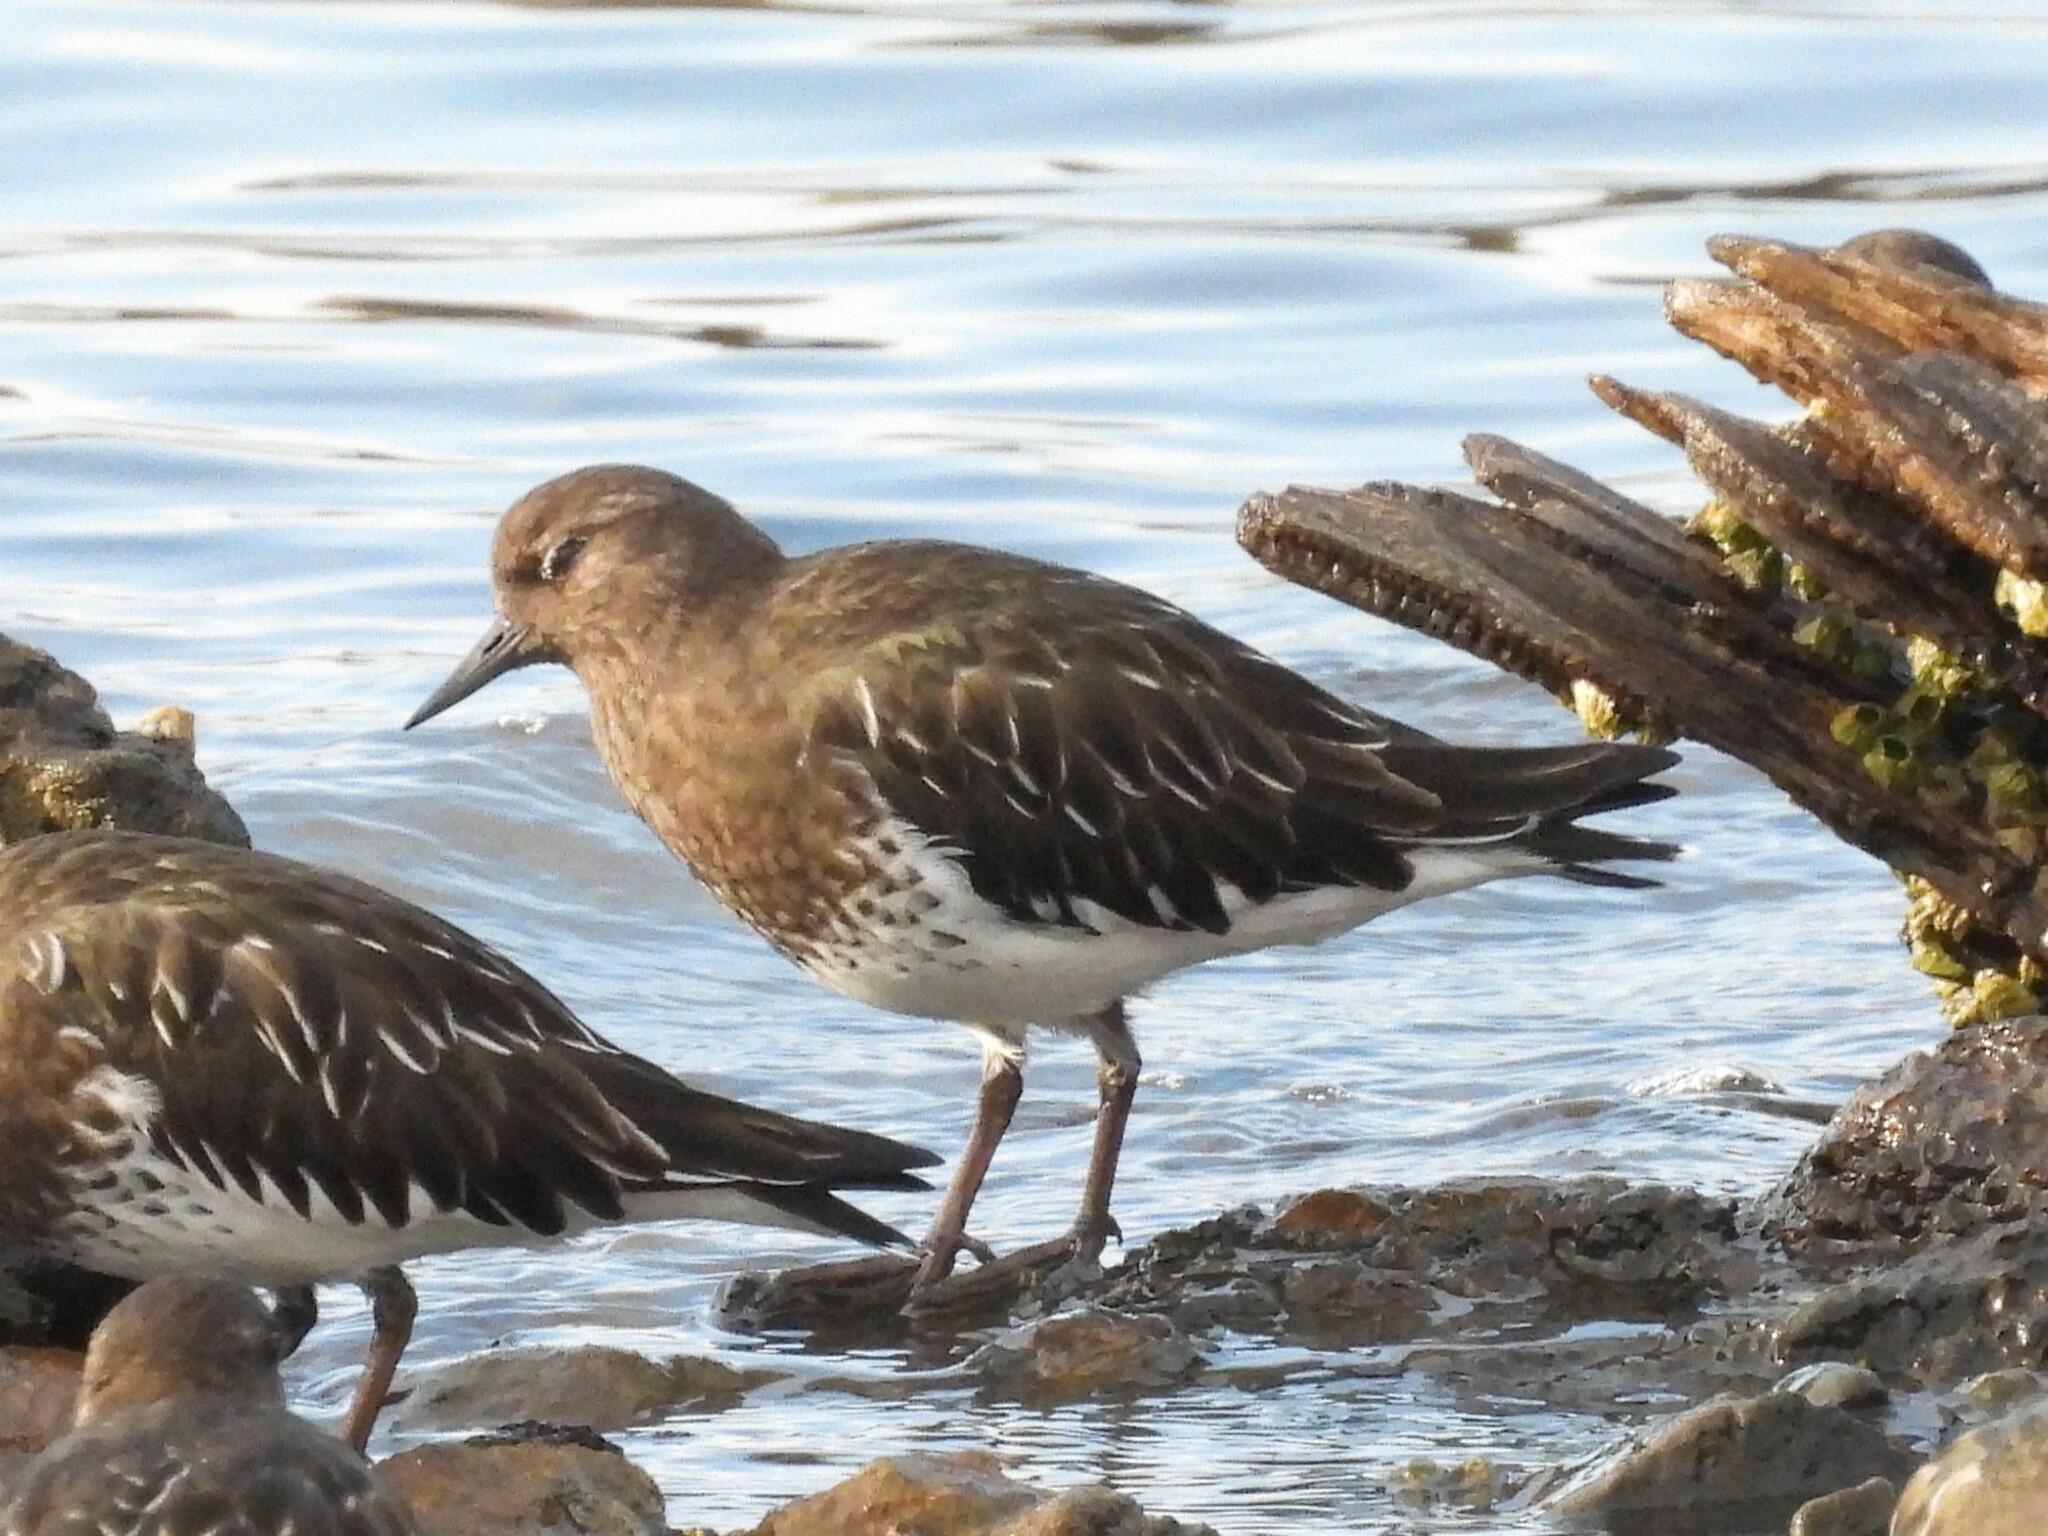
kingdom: Animalia
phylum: Chordata
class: Aves
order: Charadriiformes
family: Scolopacidae
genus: Arenaria
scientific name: Arenaria melanocephala
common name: Black turnstone
